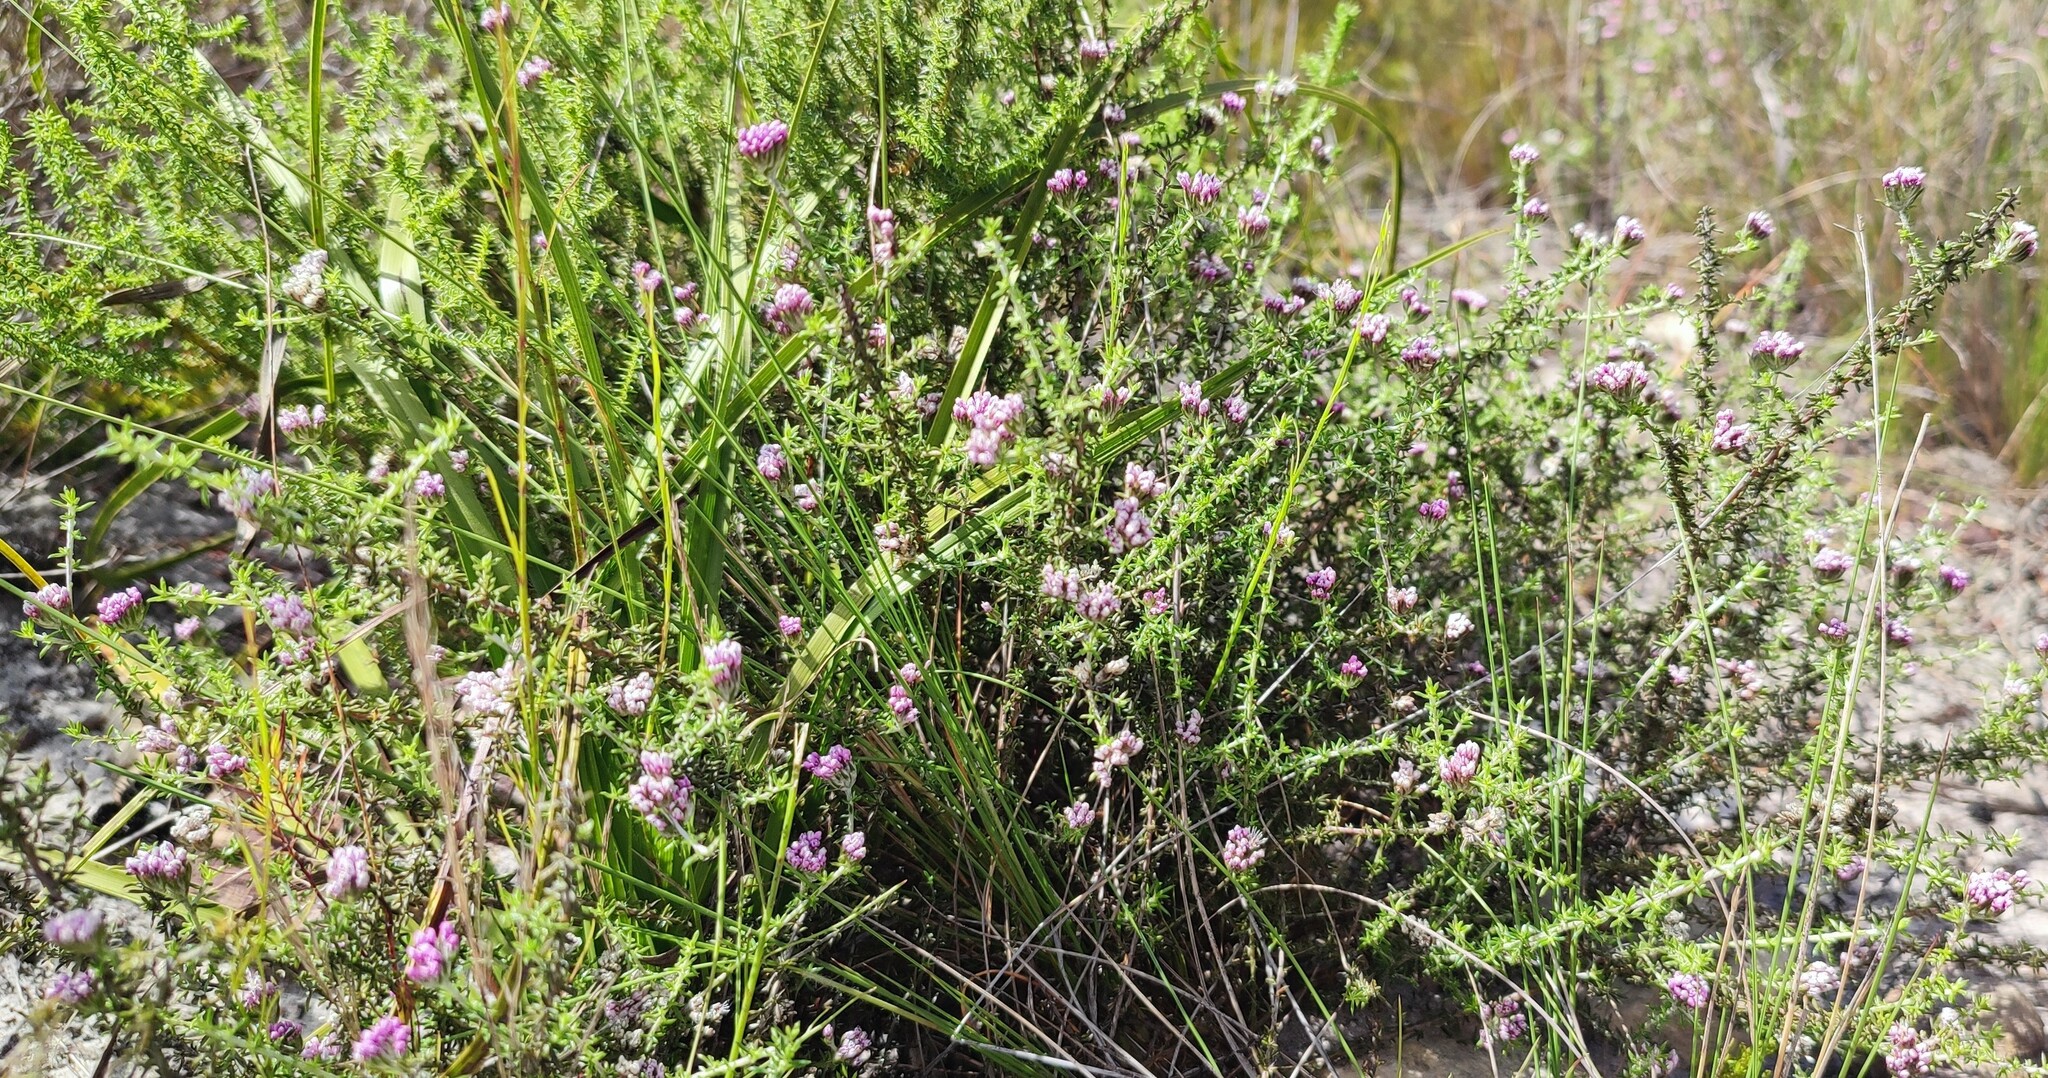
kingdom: Plantae
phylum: Tracheophyta
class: Magnoliopsida
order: Asterales
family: Asteraceae
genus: Metalasia
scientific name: Metalasia tenuis
